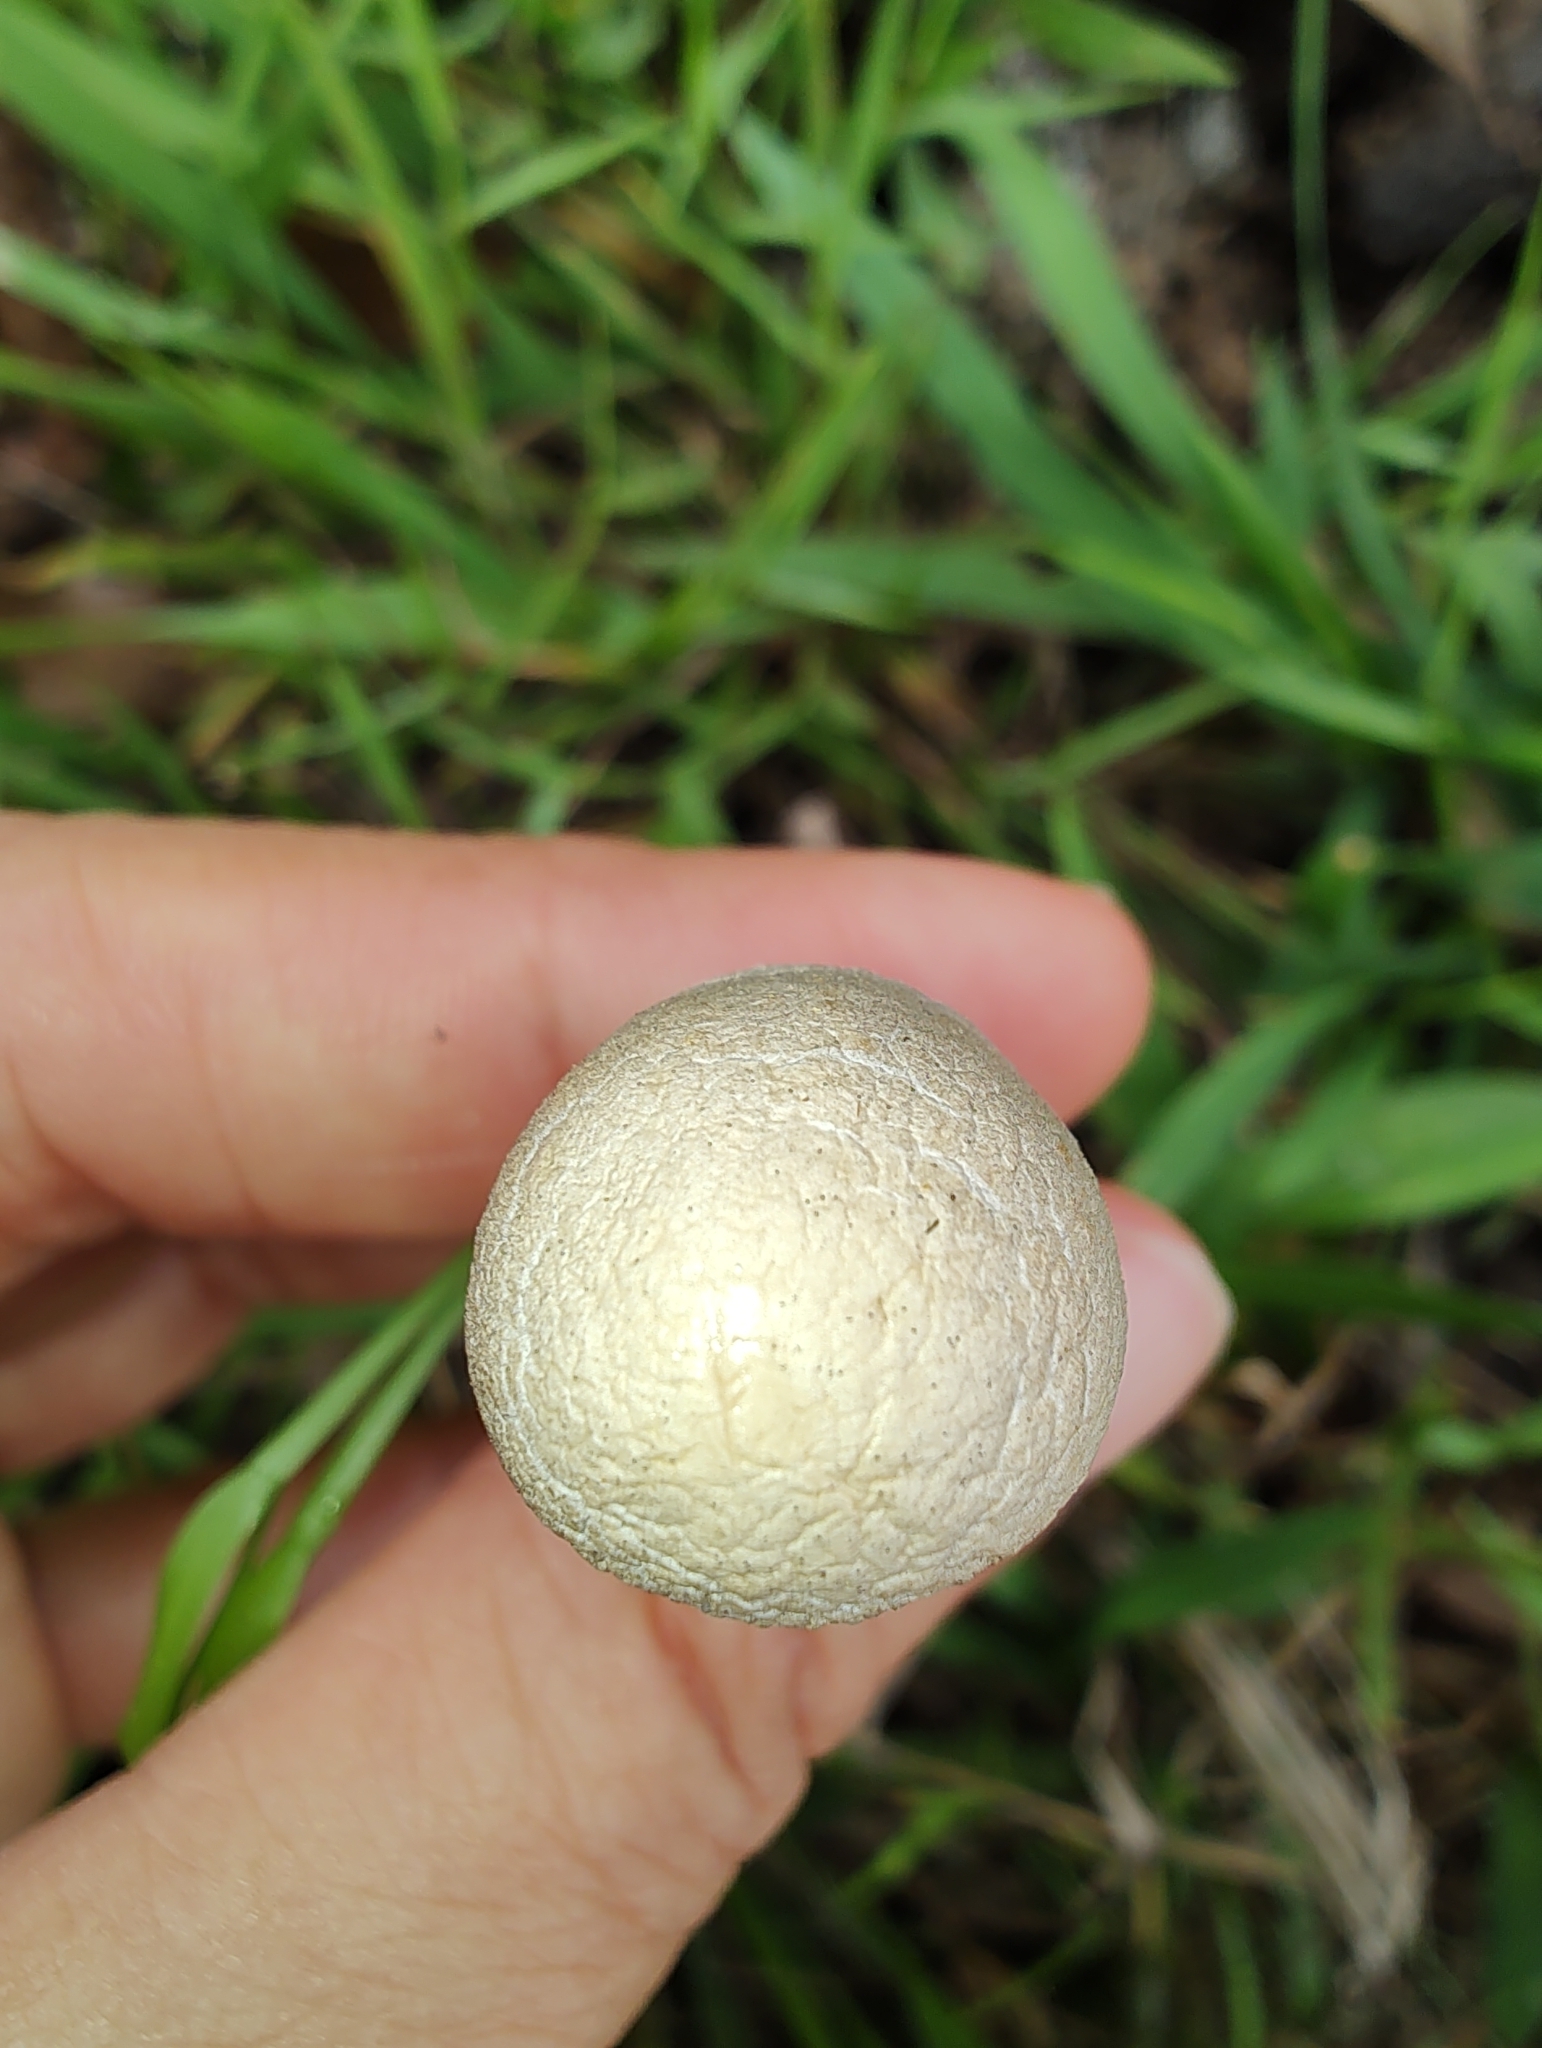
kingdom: Fungi
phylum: Basidiomycota
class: Agaricomycetes
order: Agaricales
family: Bolbitiaceae
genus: Panaeolus
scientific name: Panaeolus antillarum
